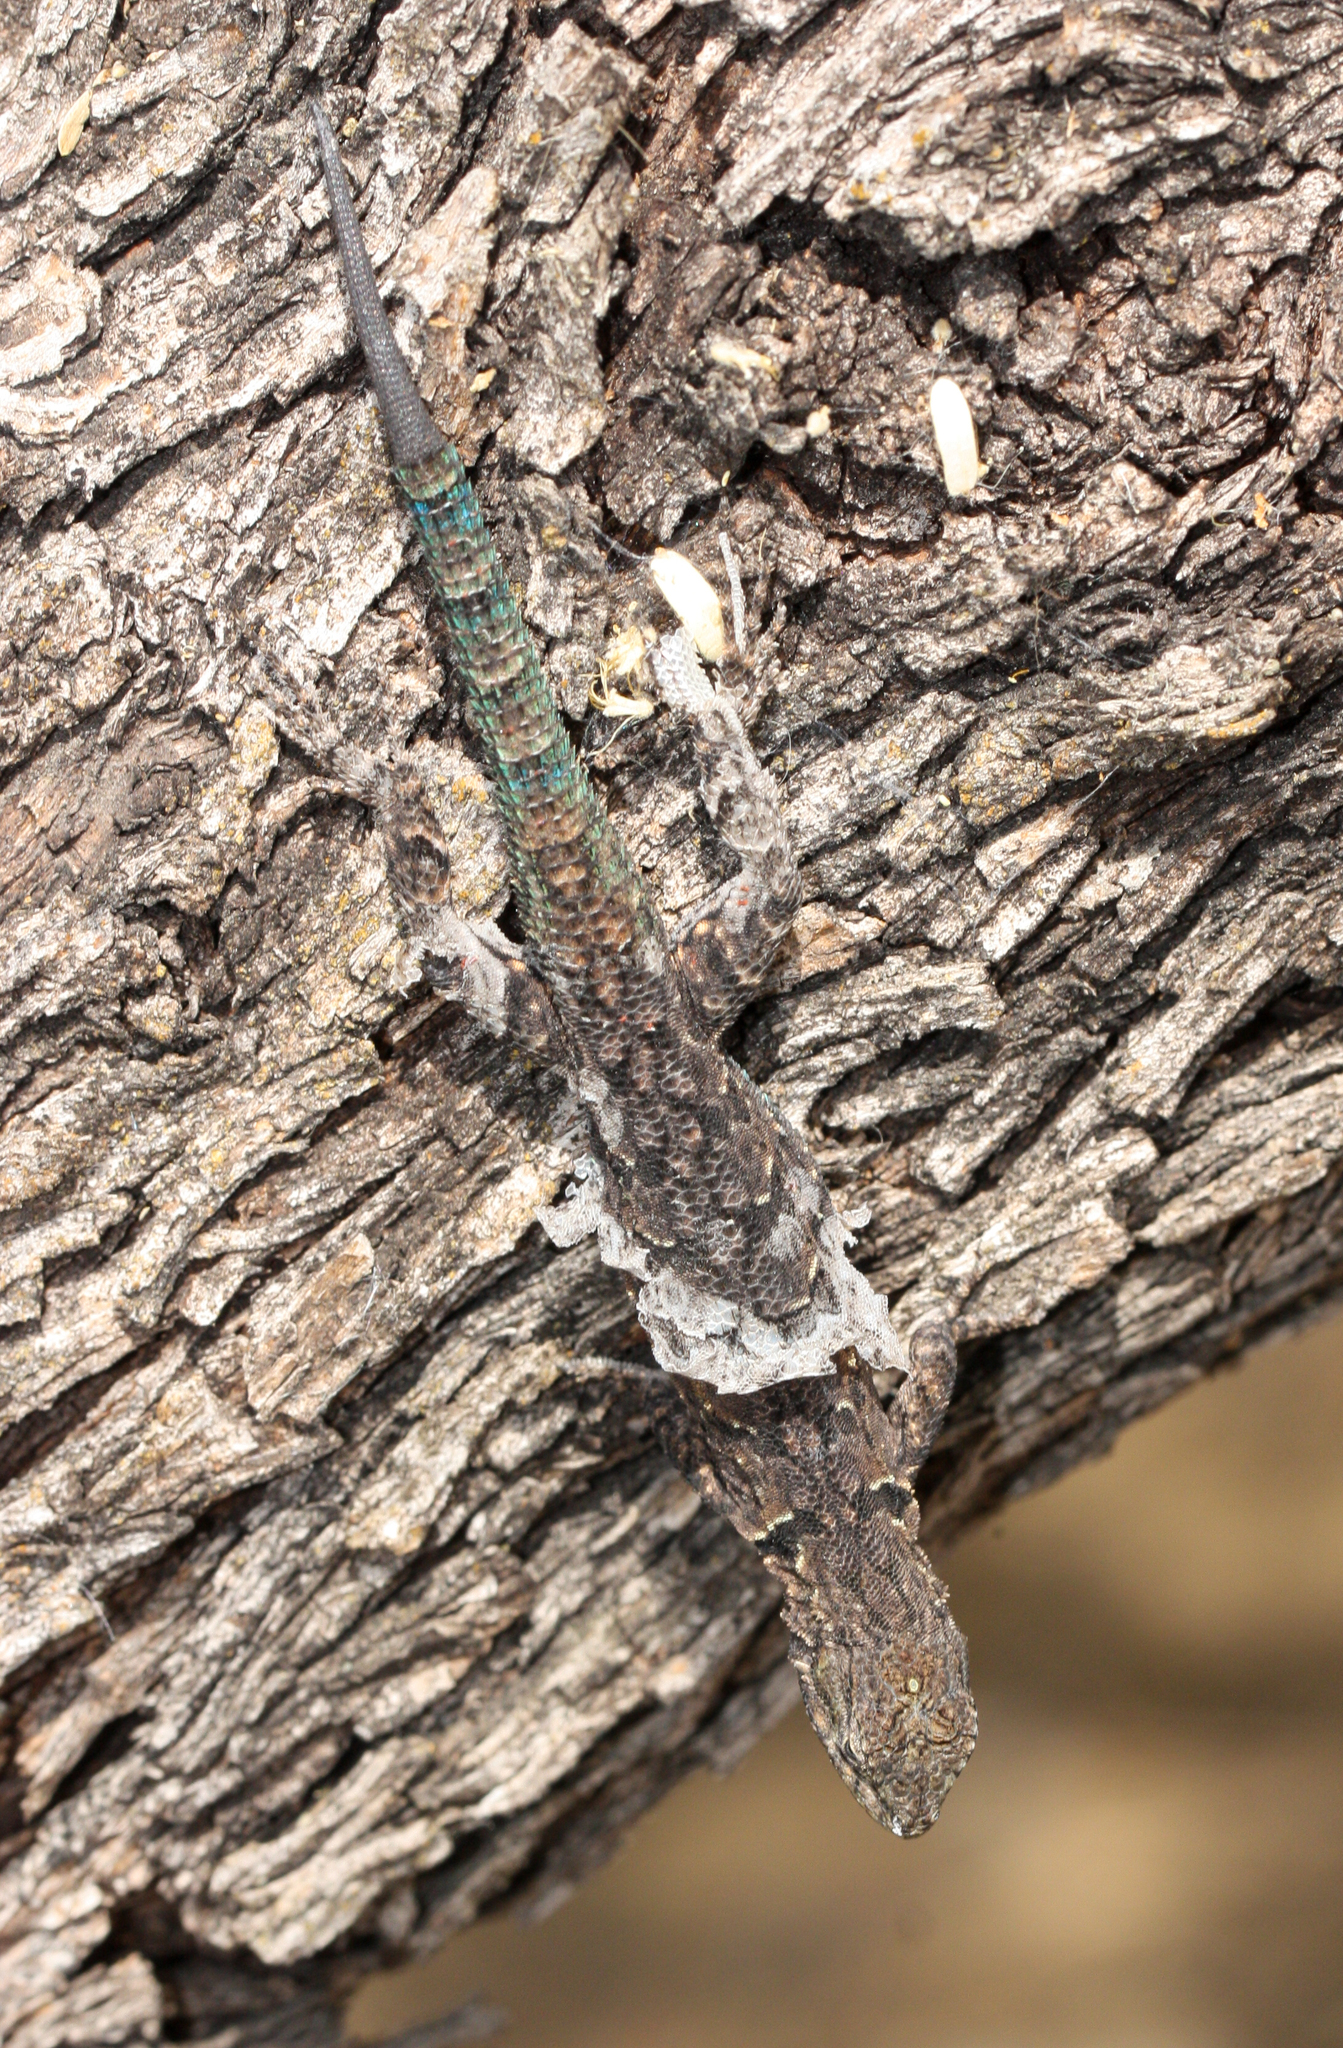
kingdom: Animalia
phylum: Chordata
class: Squamata
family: Phrynosomatidae
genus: Urosaurus
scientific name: Urosaurus ornatus
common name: Ornate tree lizard
